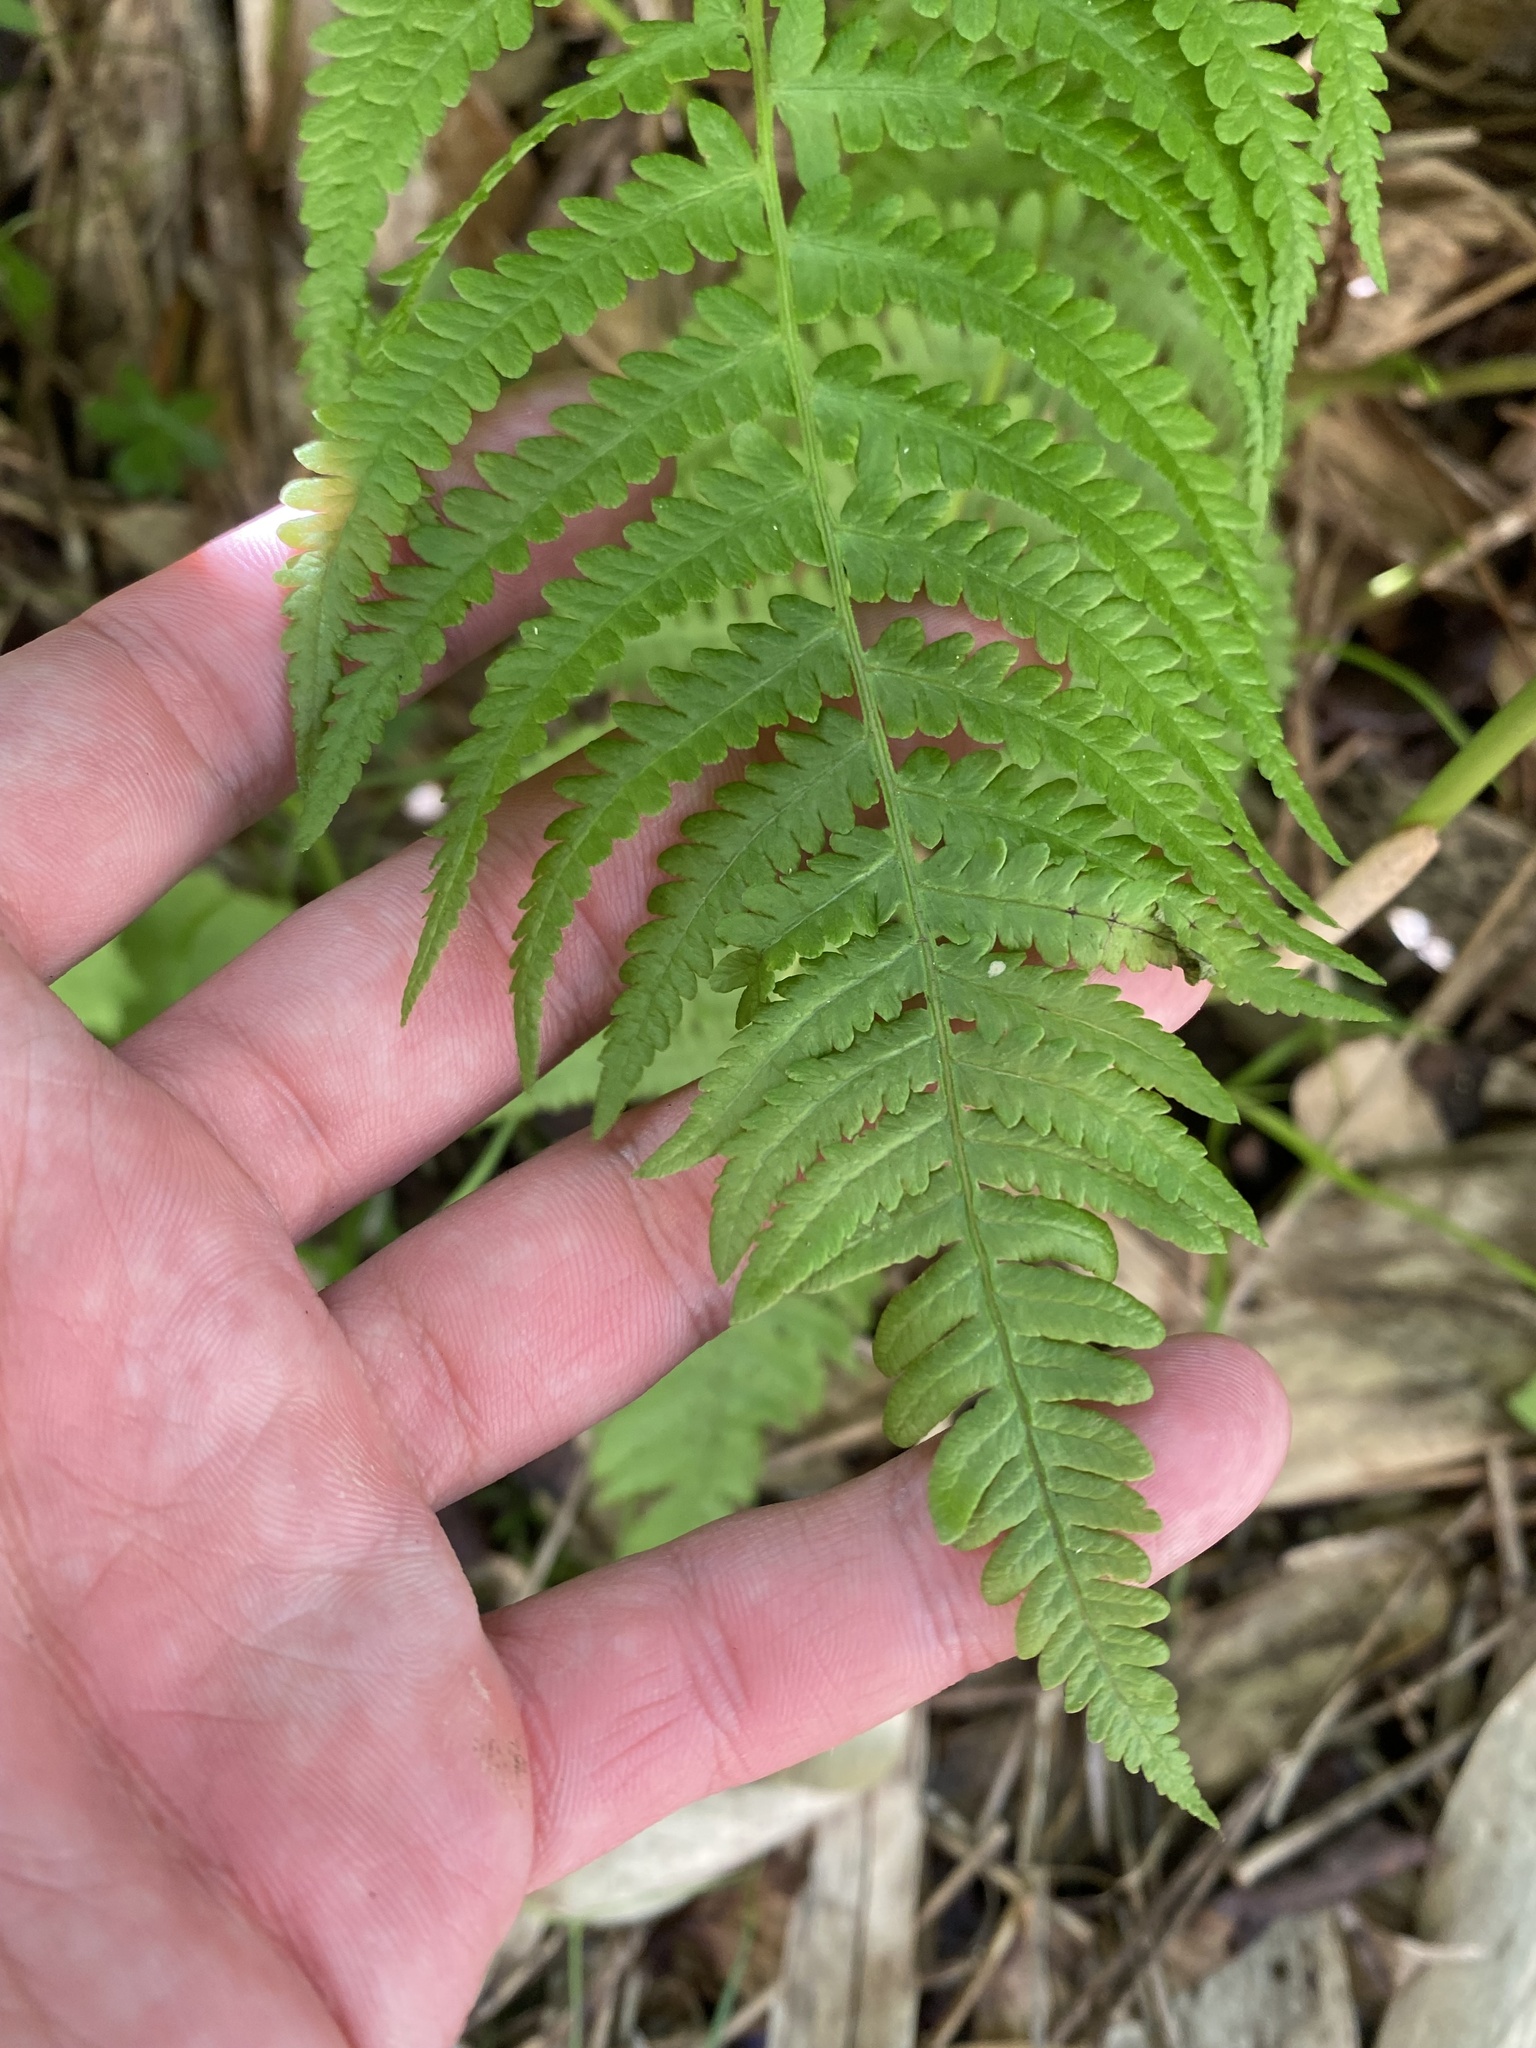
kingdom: Plantae
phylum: Tracheophyta
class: Polypodiopsida
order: Polypodiales
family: Thelypteridaceae
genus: Oreopteris
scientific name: Oreopteris quelpartensis
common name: Mountain fern
